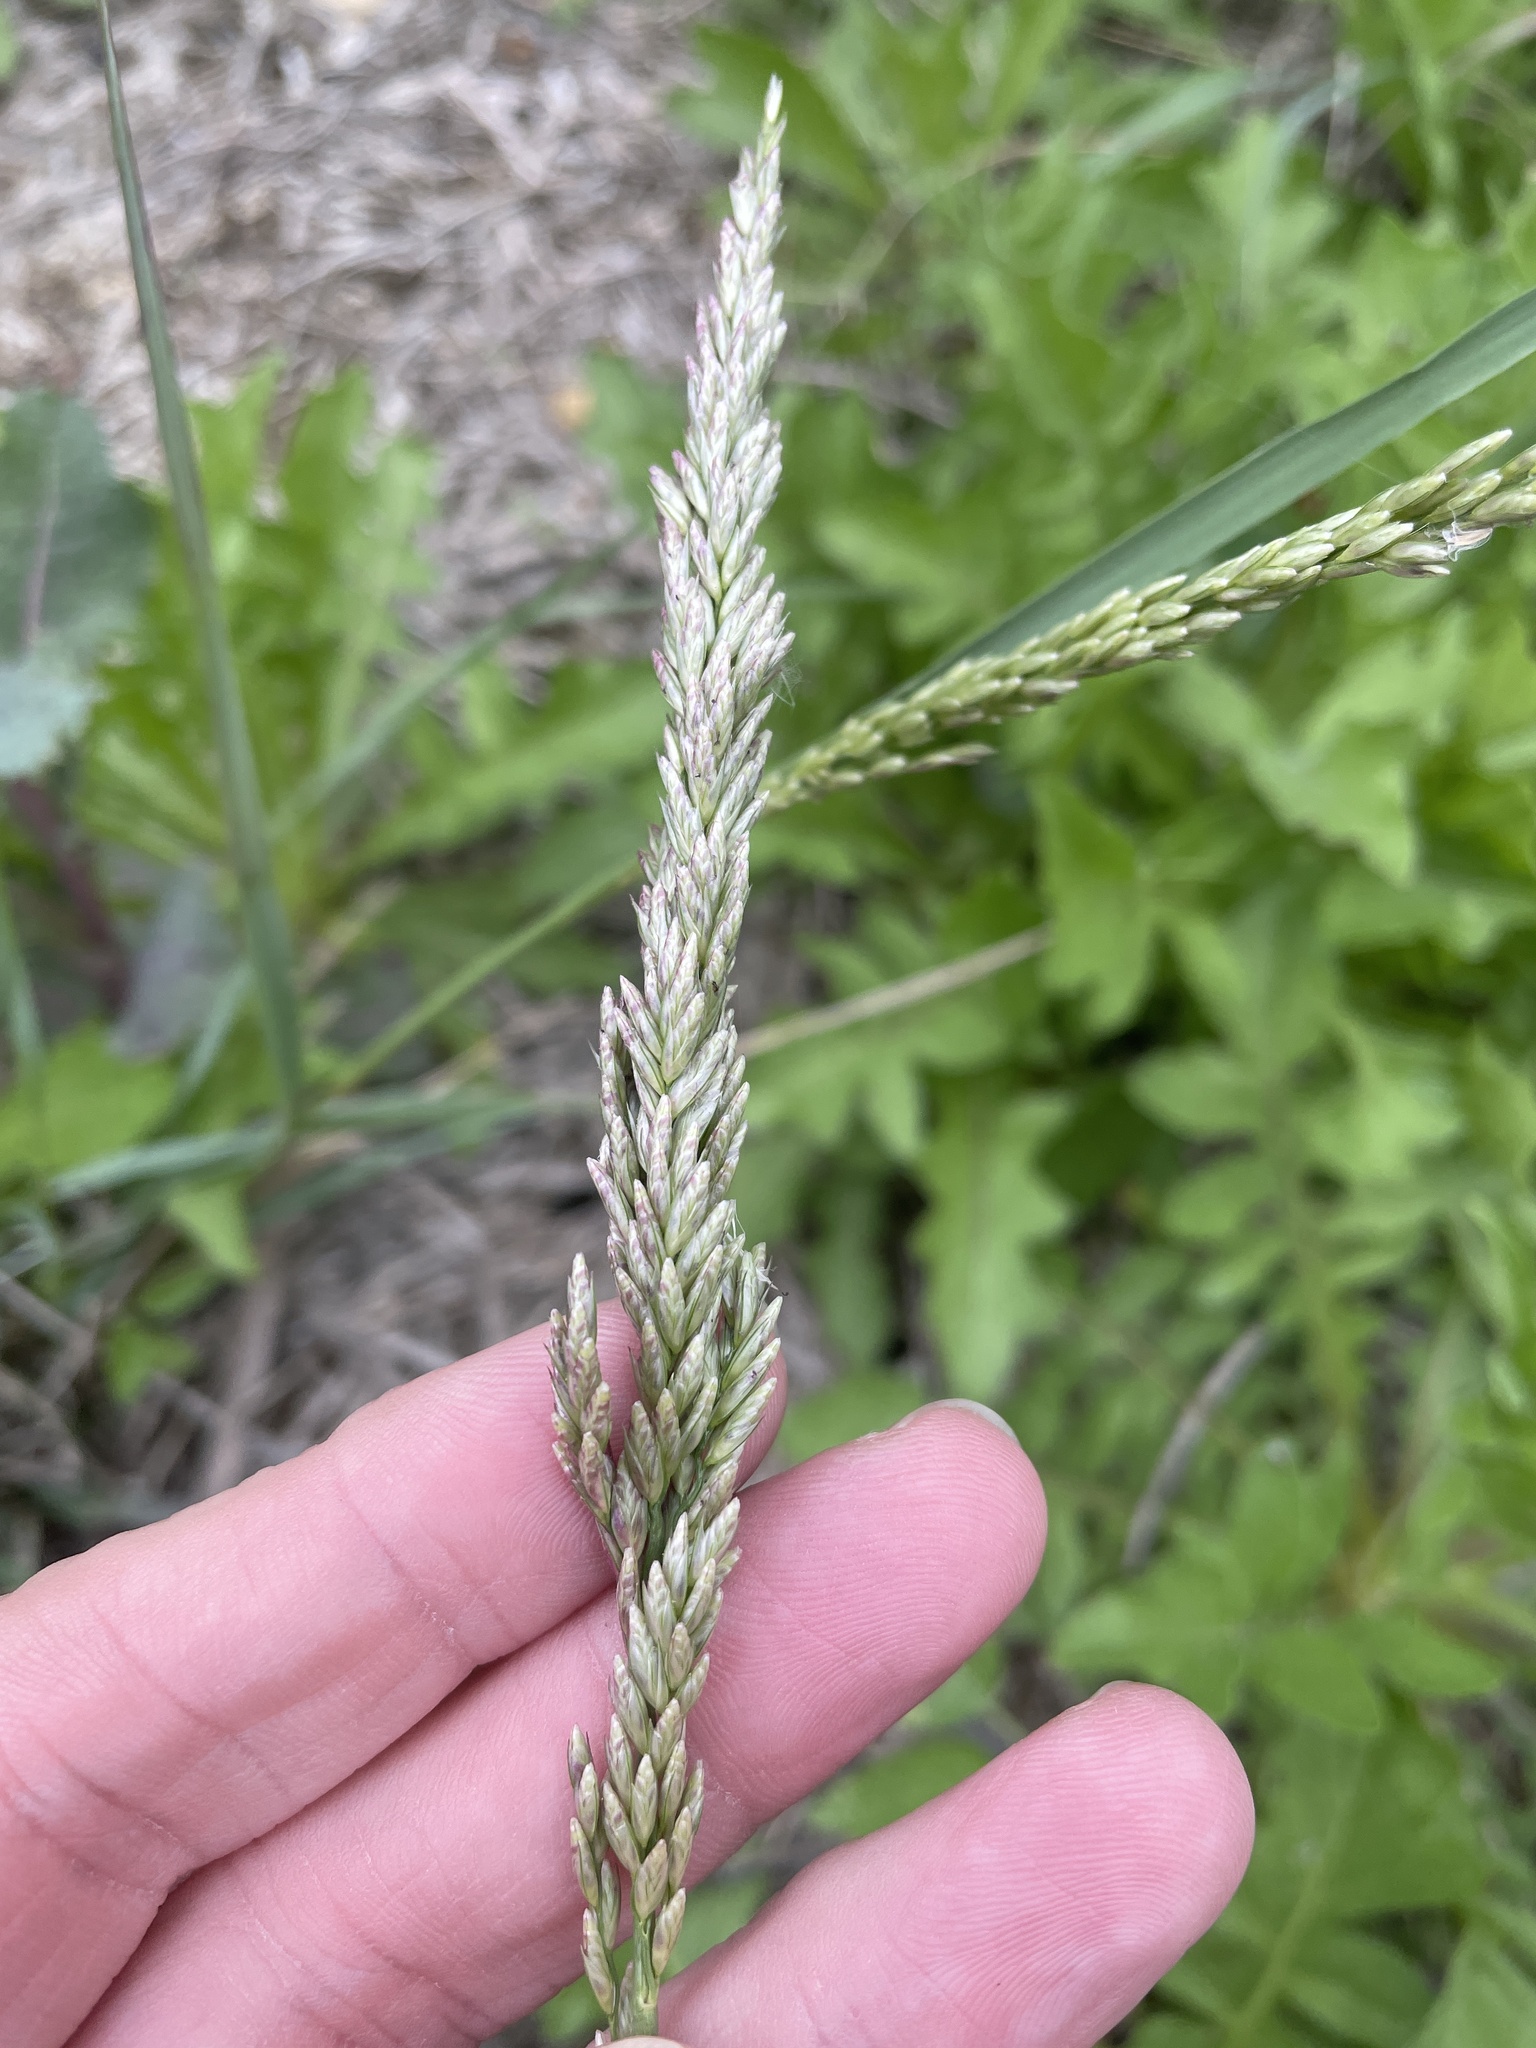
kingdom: Plantae
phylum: Tracheophyta
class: Liliopsida
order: Poales
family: Poaceae
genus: Tridens
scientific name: Tridens albescens
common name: White tridens
